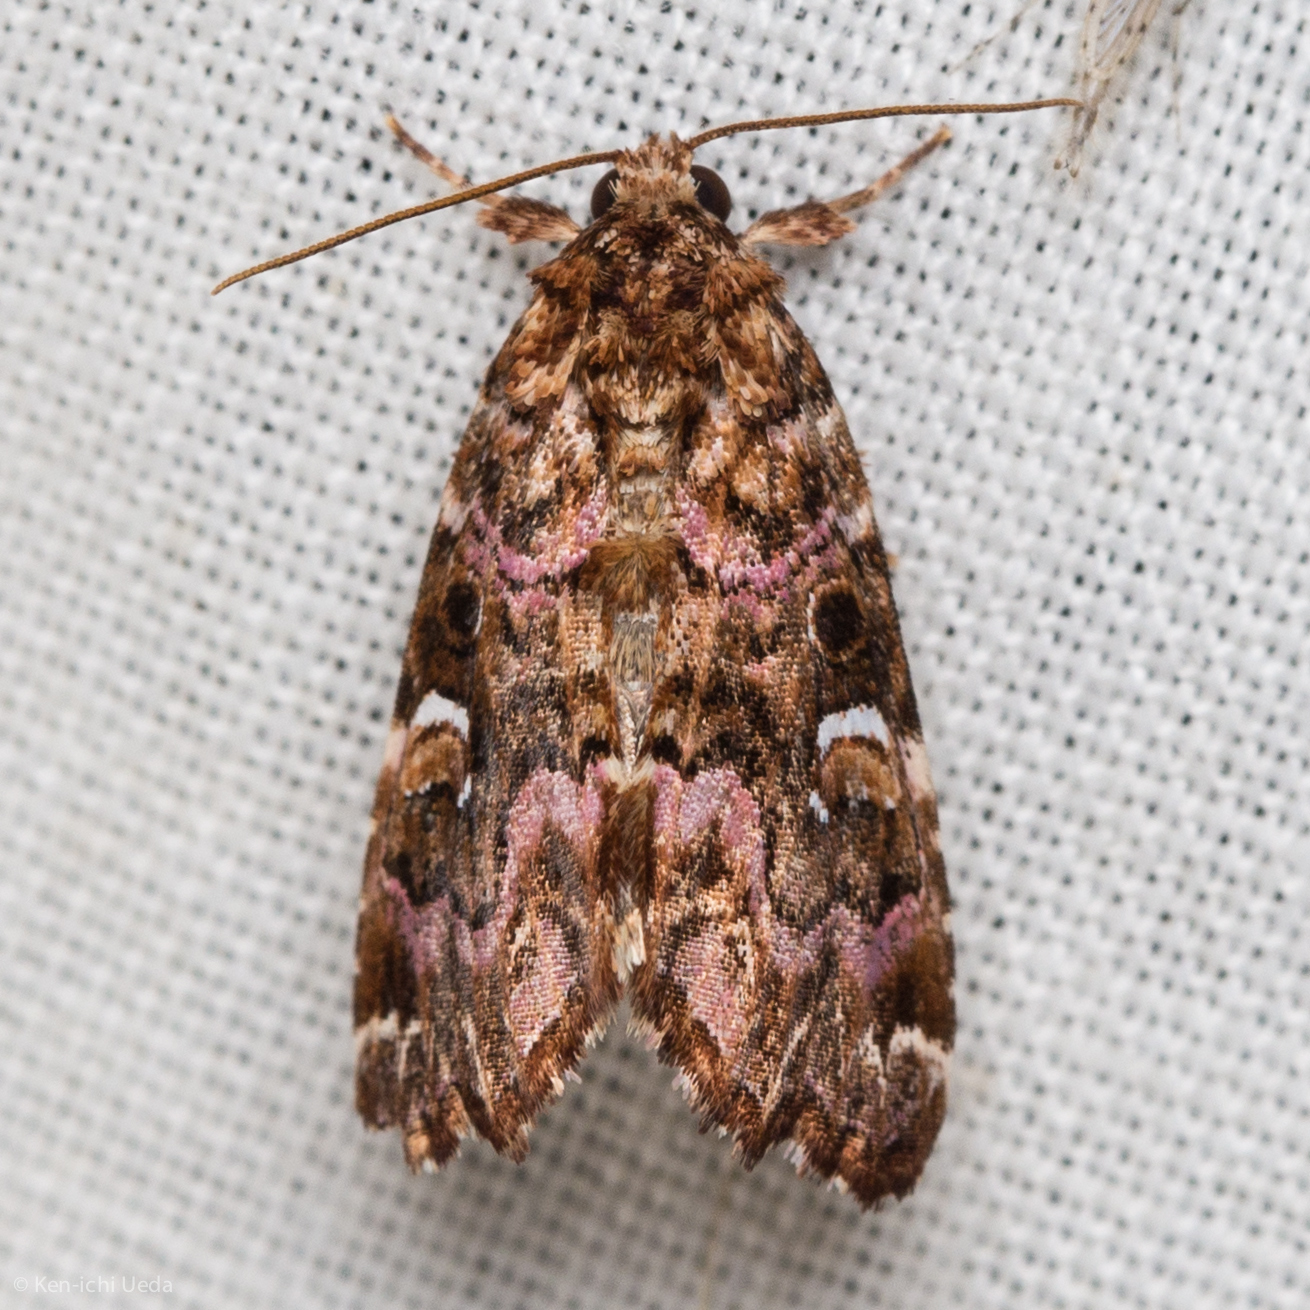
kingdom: Animalia
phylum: Arthropoda
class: Insecta
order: Lepidoptera
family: Noctuidae
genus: Callopistria
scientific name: Callopistria mollissima
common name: Pink-shaded fern moth
